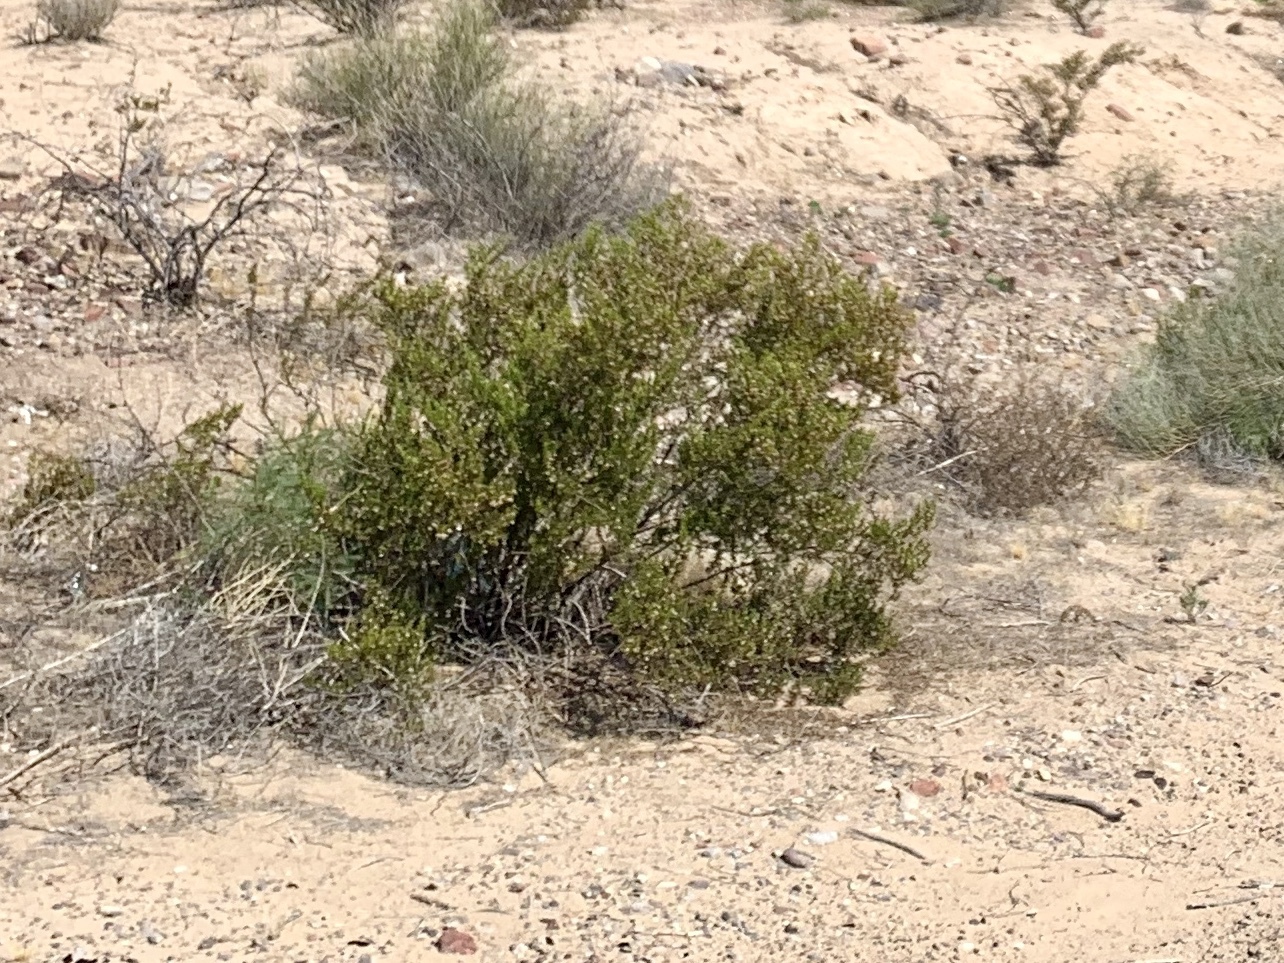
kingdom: Plantae
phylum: Tracheophyta
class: Magnoliopsida
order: Zygophyllales
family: Zygophyllaceae
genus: Larrea
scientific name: Larrea tridentata
